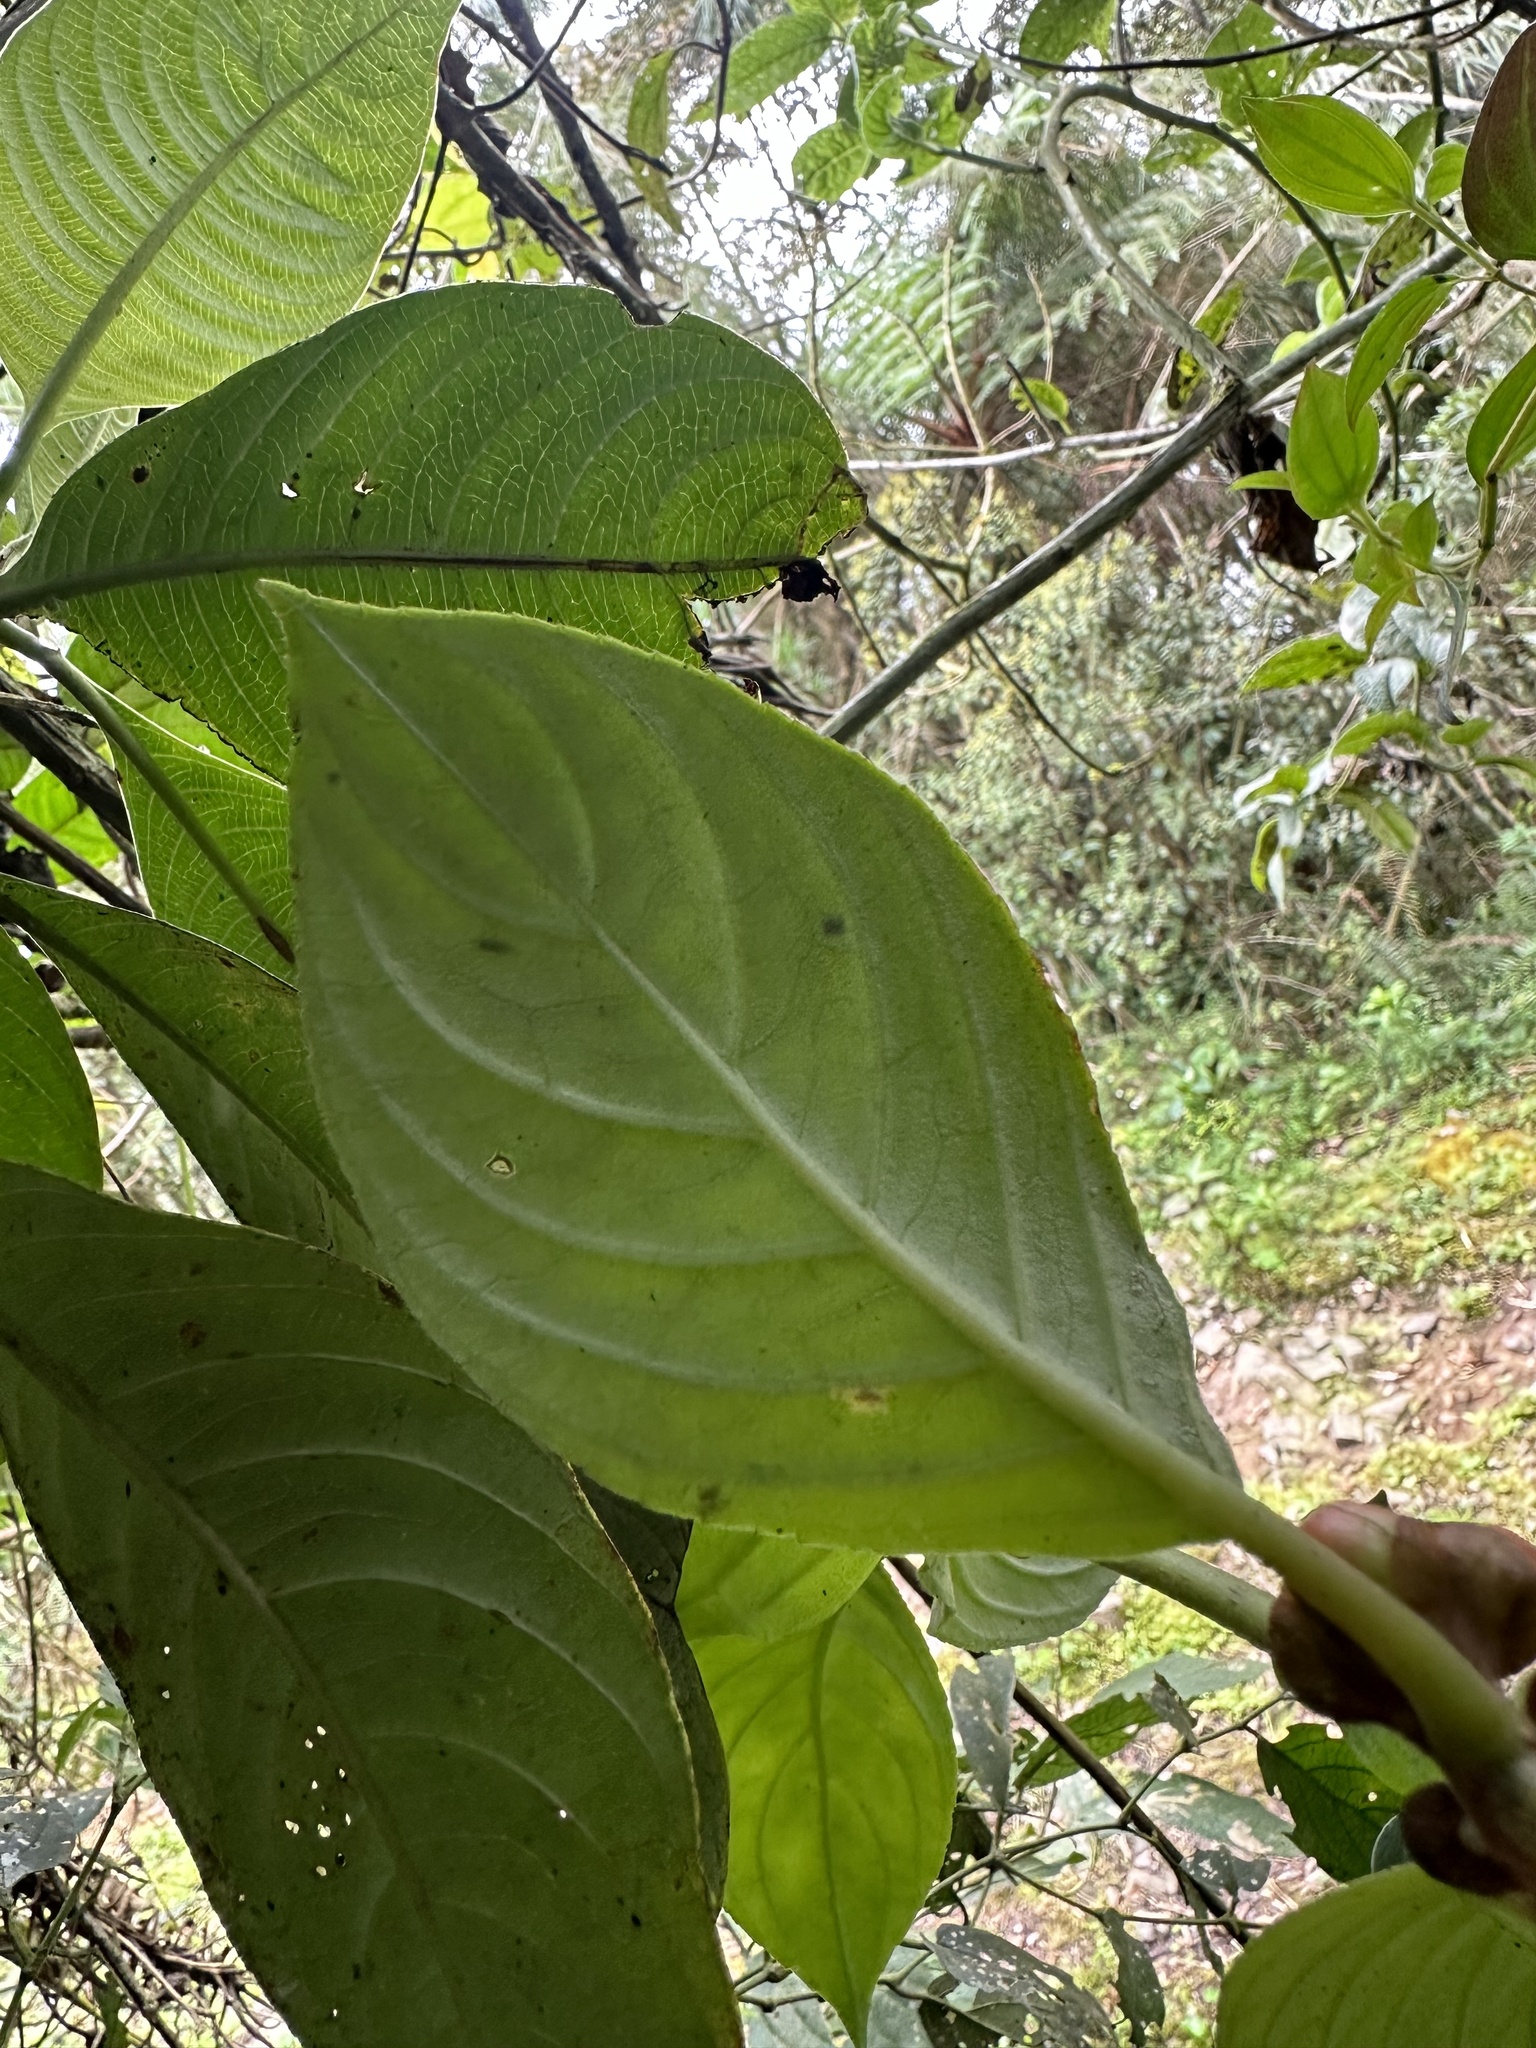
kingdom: Plantae
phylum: Tracheophyta
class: Magnoliopsida
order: Lamiales
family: Gesneriaceae
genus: Glossoloma
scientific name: Glossoloma herthae
